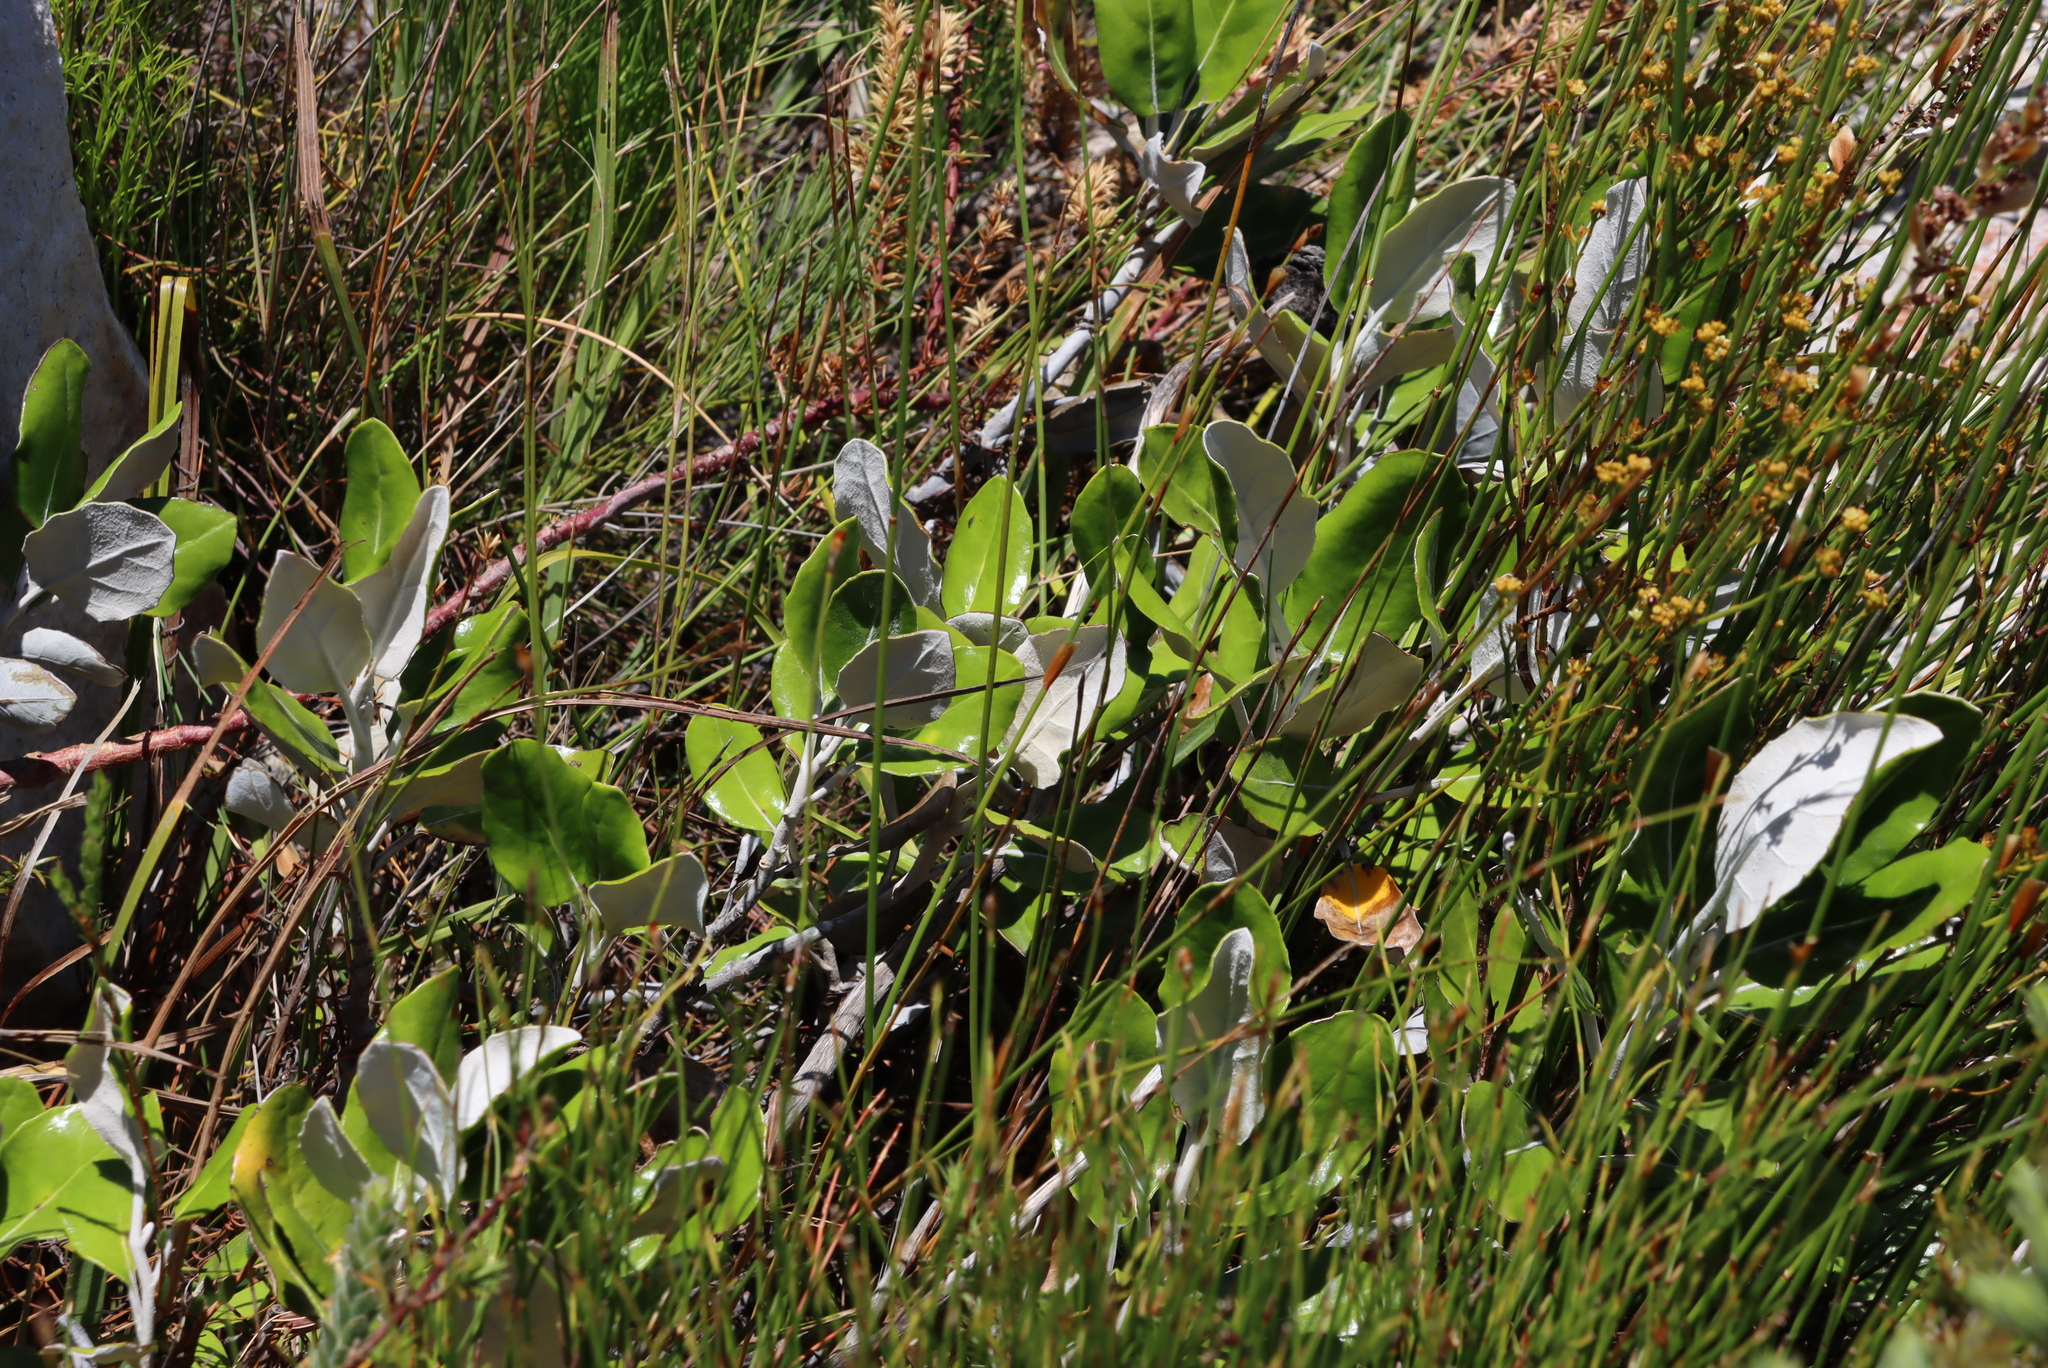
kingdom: Plantae
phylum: Tracheophyta
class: Magnoliopsida
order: Asterales
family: Asteraceae
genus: Capelio
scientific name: Capelio tabularis
